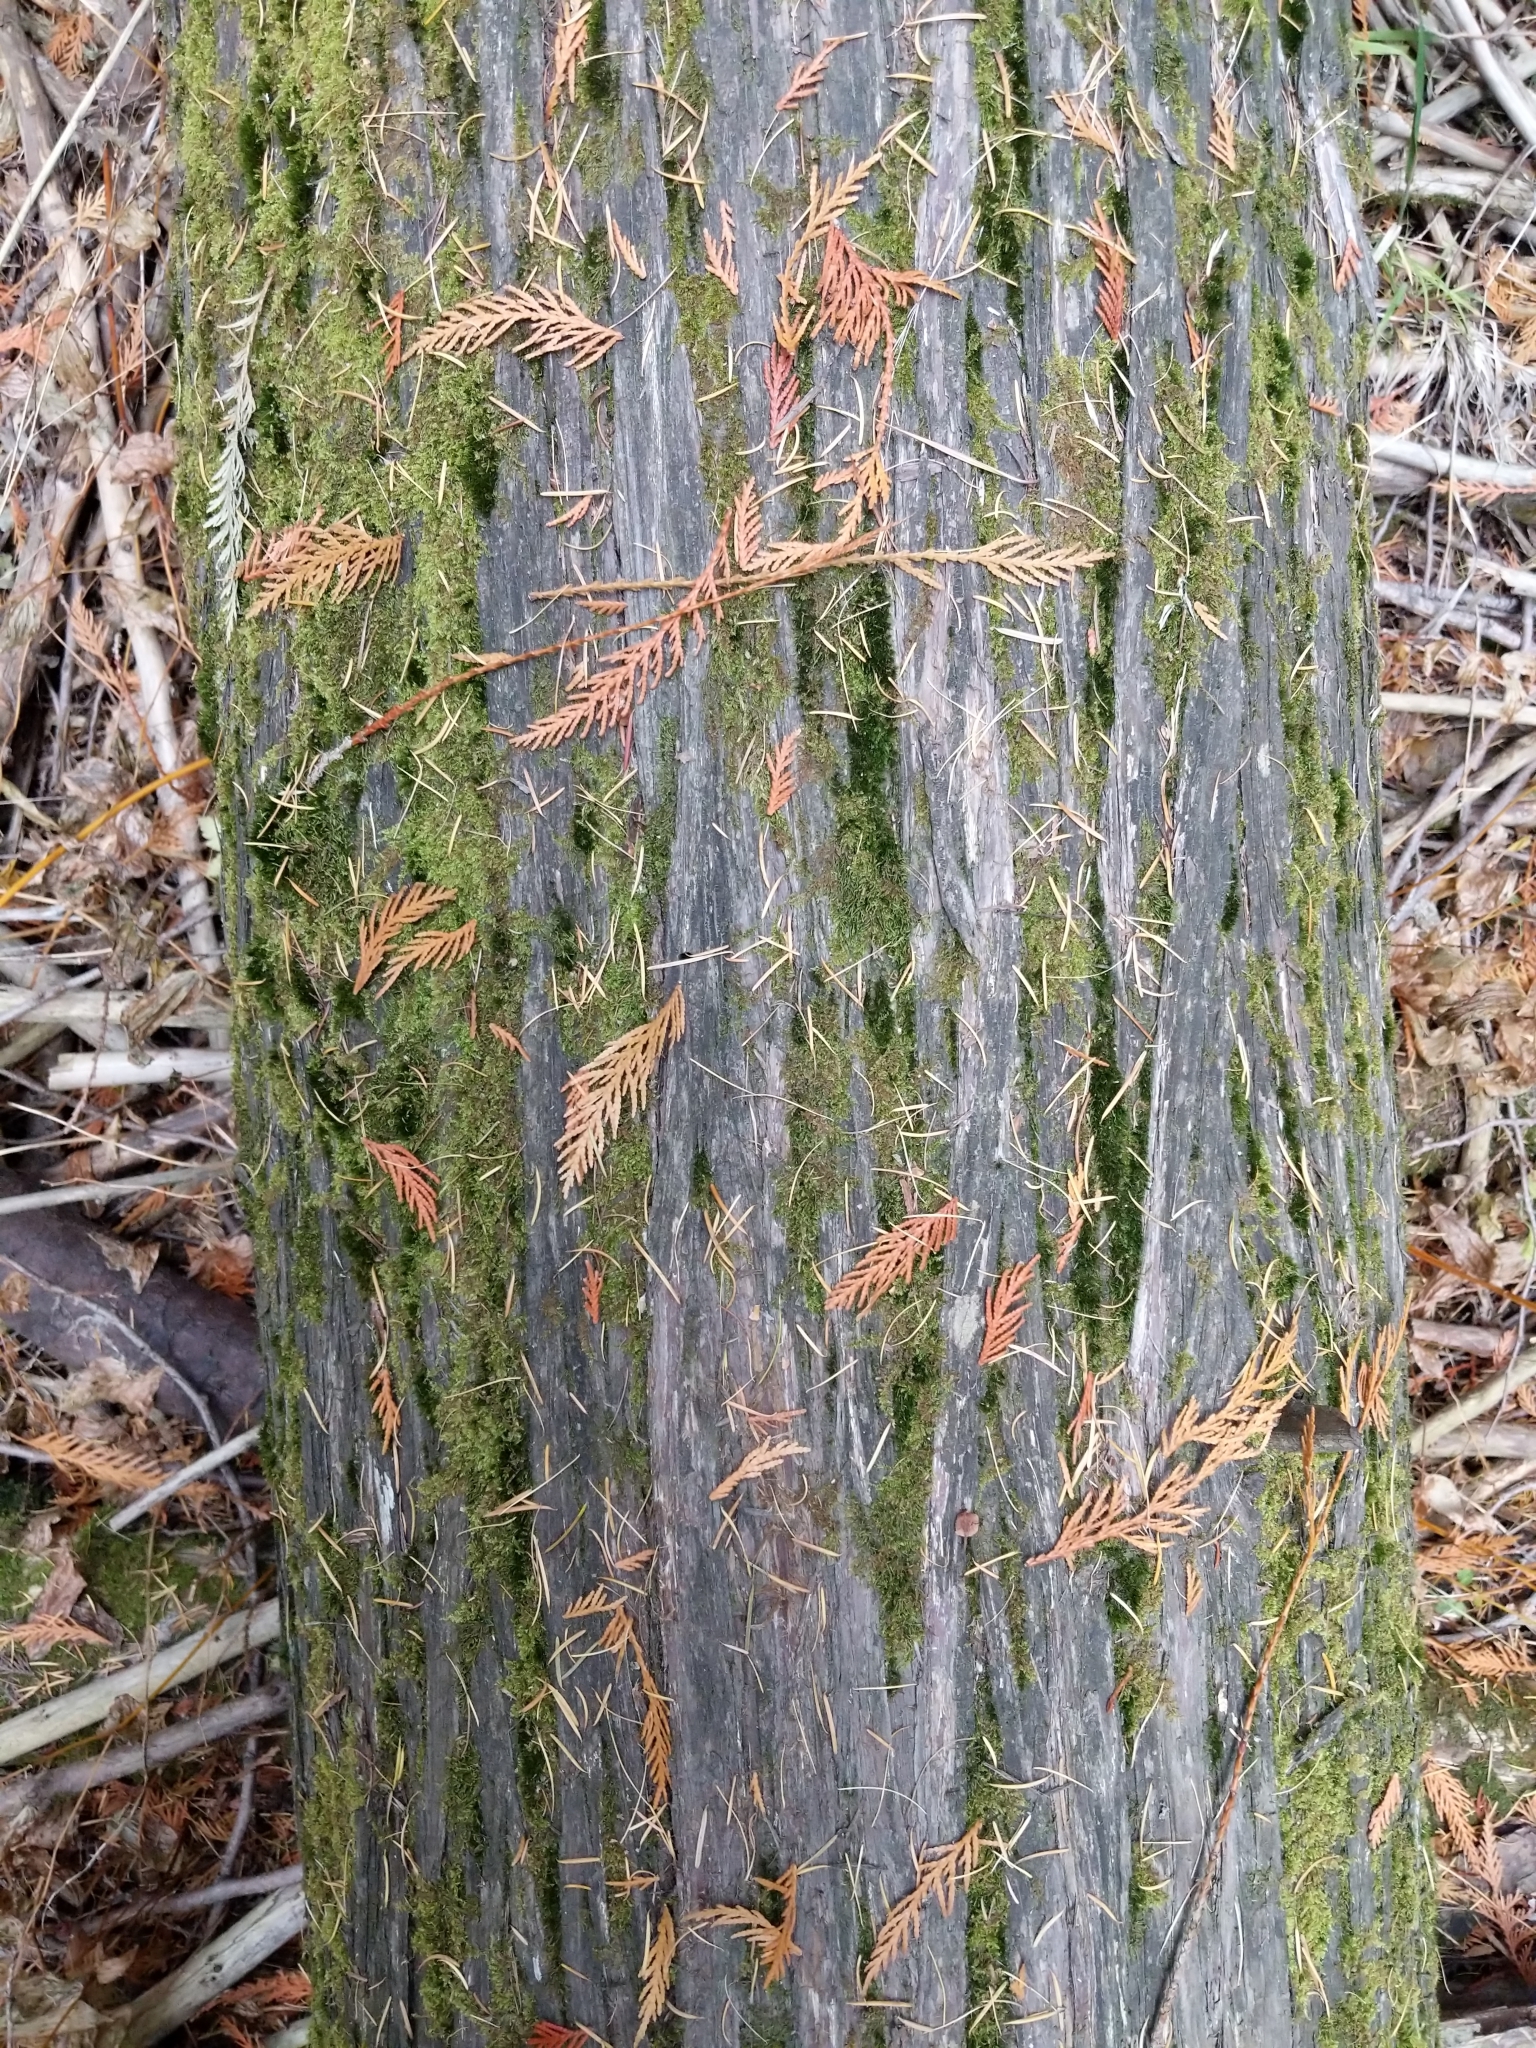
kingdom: Plantae
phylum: Tracheophyta
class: Pinopsida
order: Pinales
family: Cupressaceae
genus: Thuja
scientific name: Thuja plicata
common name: Western red-cedar
